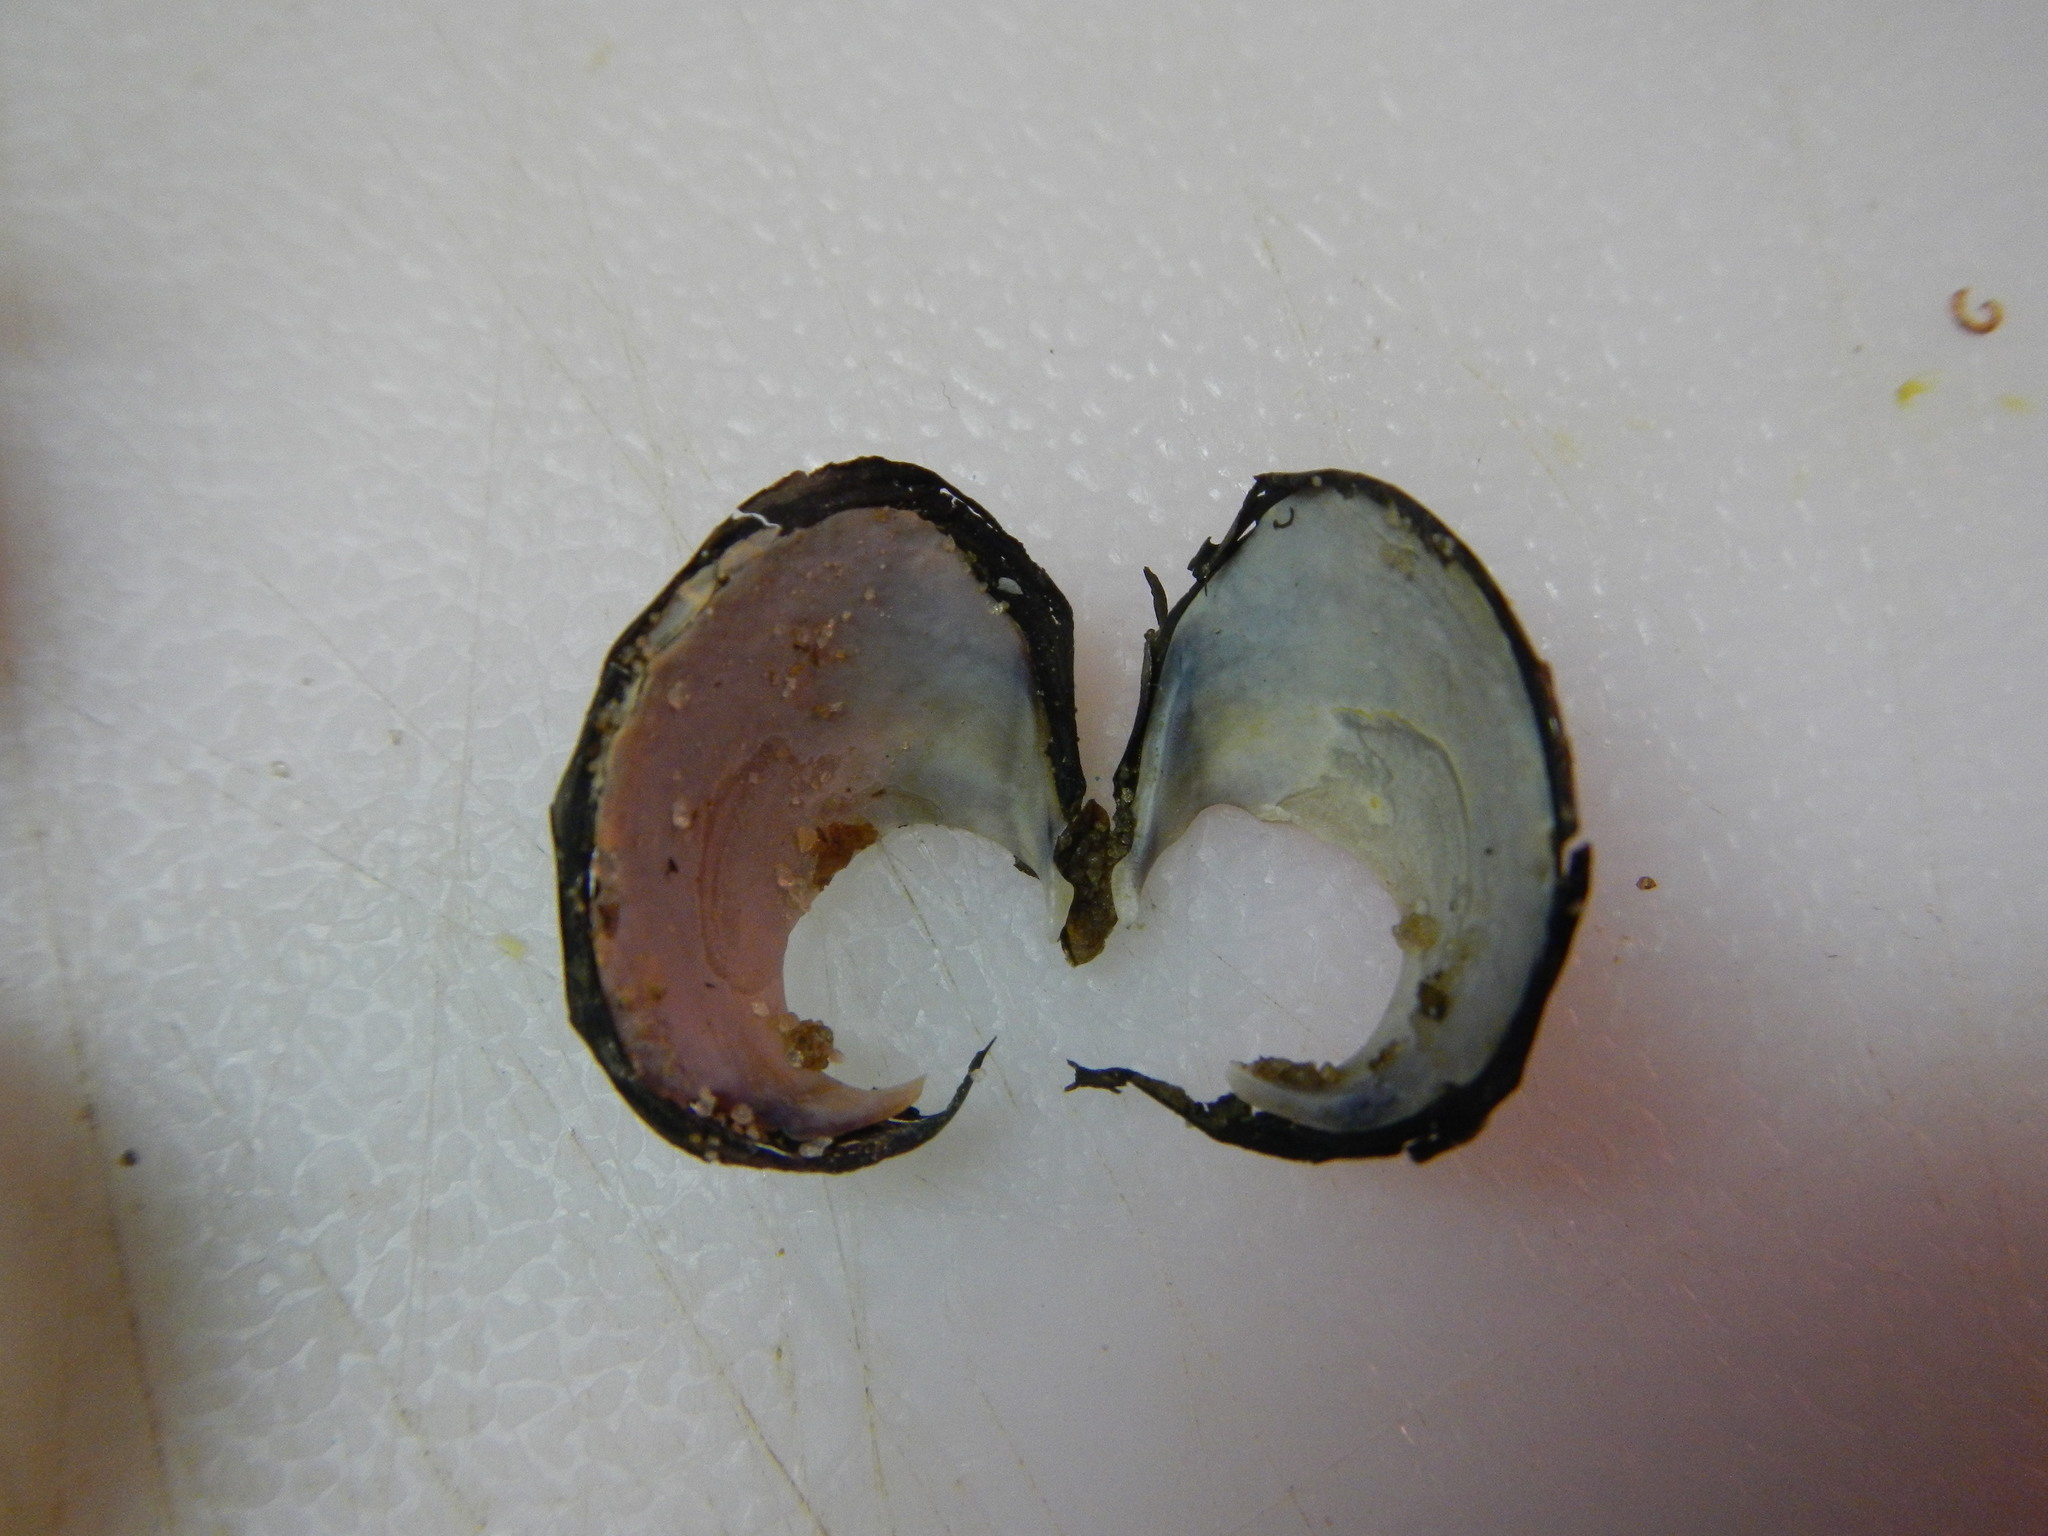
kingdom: Animalia
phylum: Mollusca
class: Bivalvia
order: Venerida
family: Cyrenidae
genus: Corbicula
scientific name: Corbicula fluminea
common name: Asian clam
